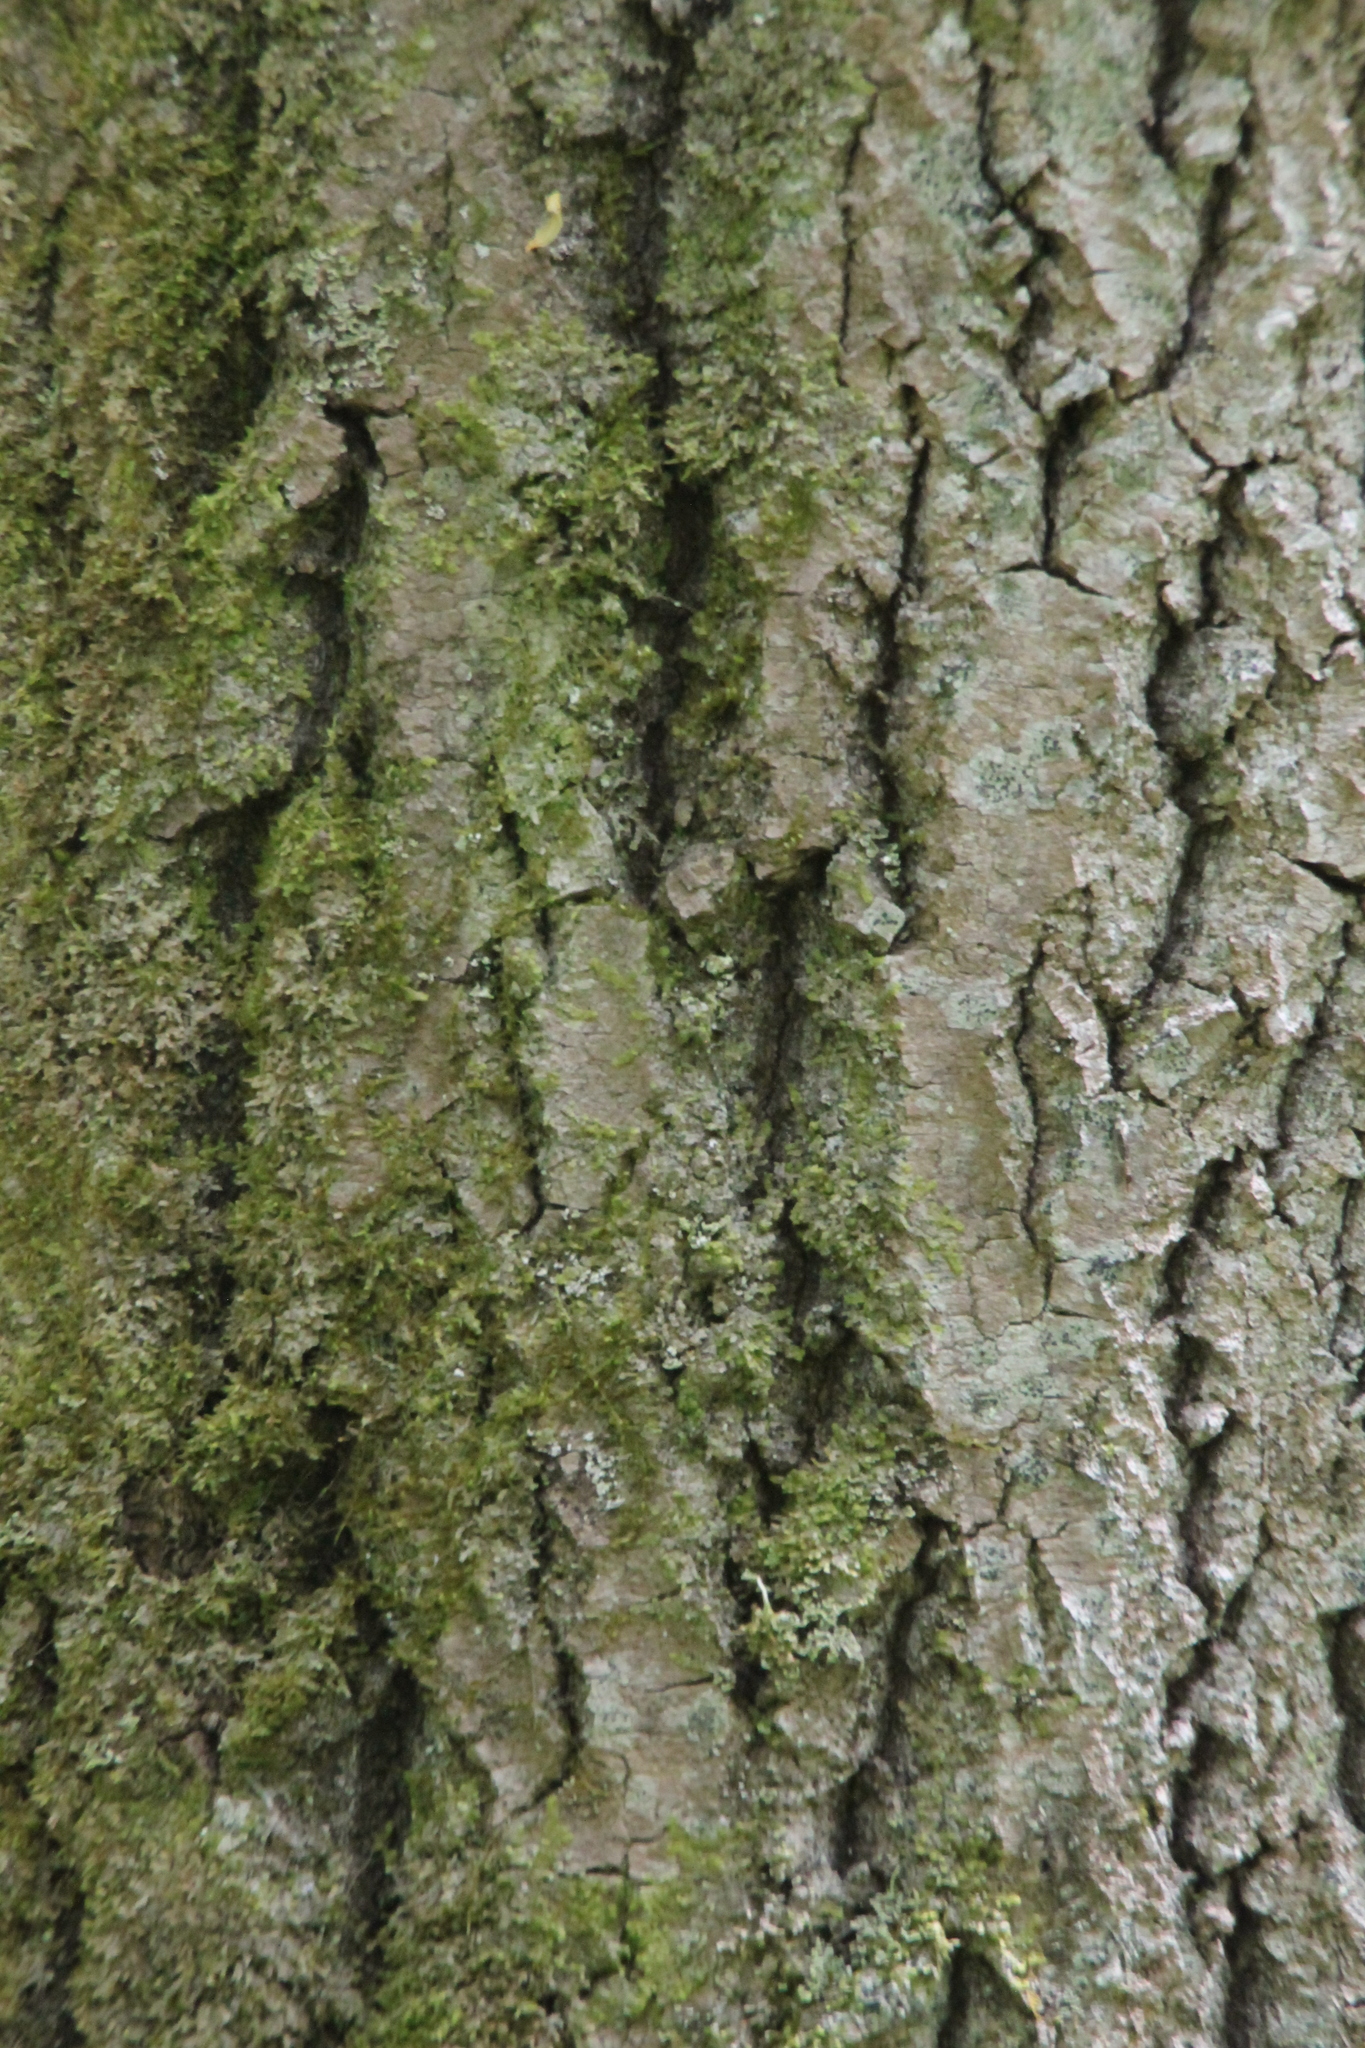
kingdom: Plantae
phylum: Tracheophyta
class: Magnoliopsida
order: Malpighiales
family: Salicaceae
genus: Populus
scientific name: Populus tremula
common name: European aspen
